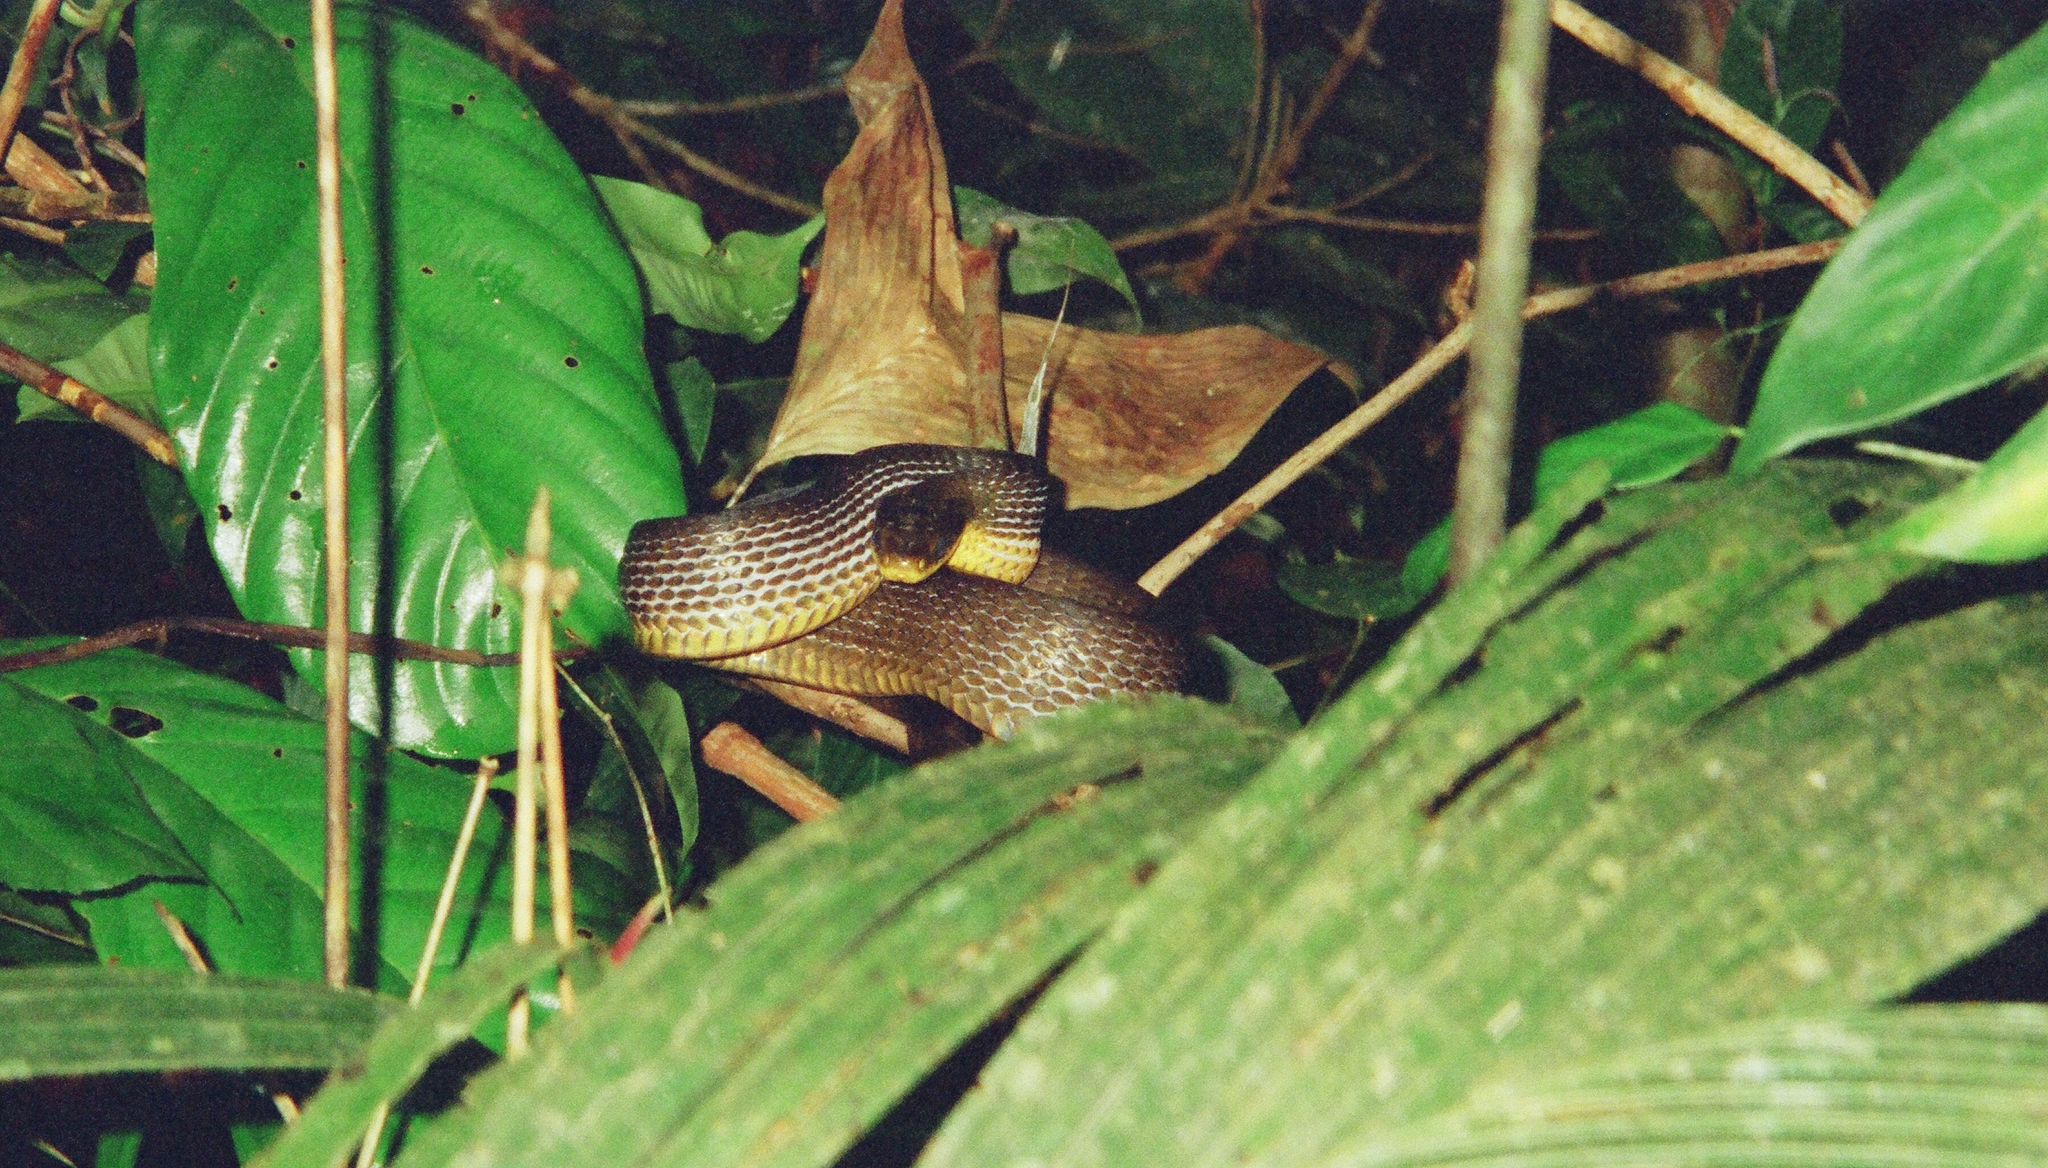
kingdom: Animalia
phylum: Chordata
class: Squamata
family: Colubridae
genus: Chironius
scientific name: Chironius quadricarinatus
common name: Central sipo
